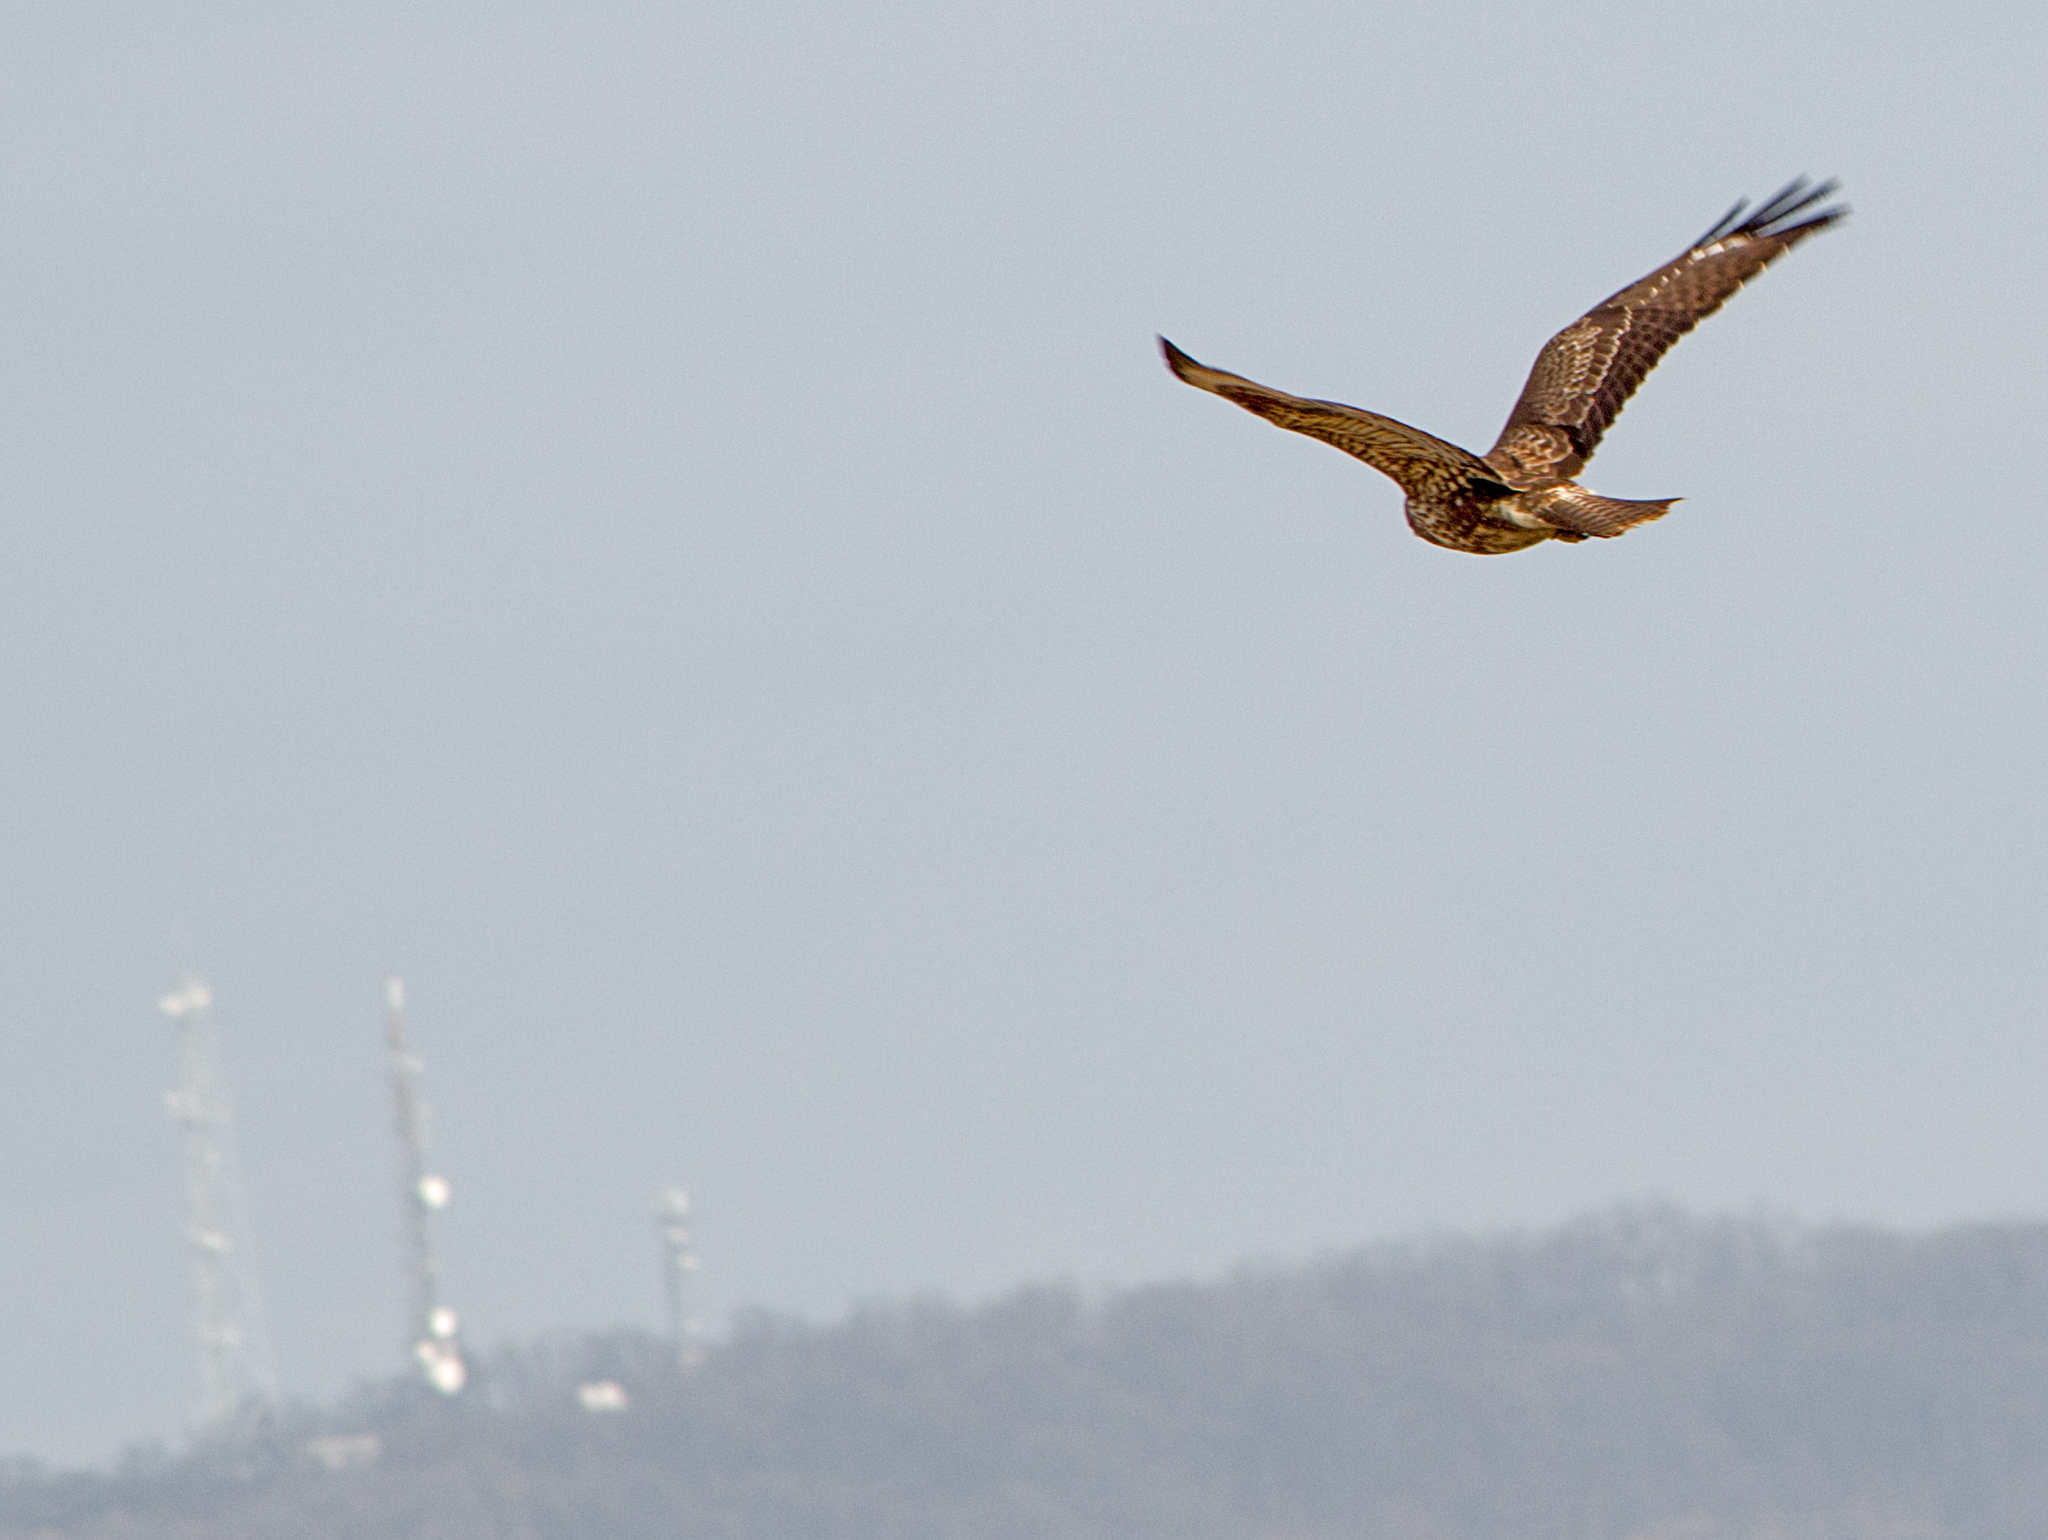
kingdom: Animalia
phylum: Chordata
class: Aves
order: Accipitriformes
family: Accipitridae
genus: Buteo
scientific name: Buteo buteo
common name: Common buzzard
